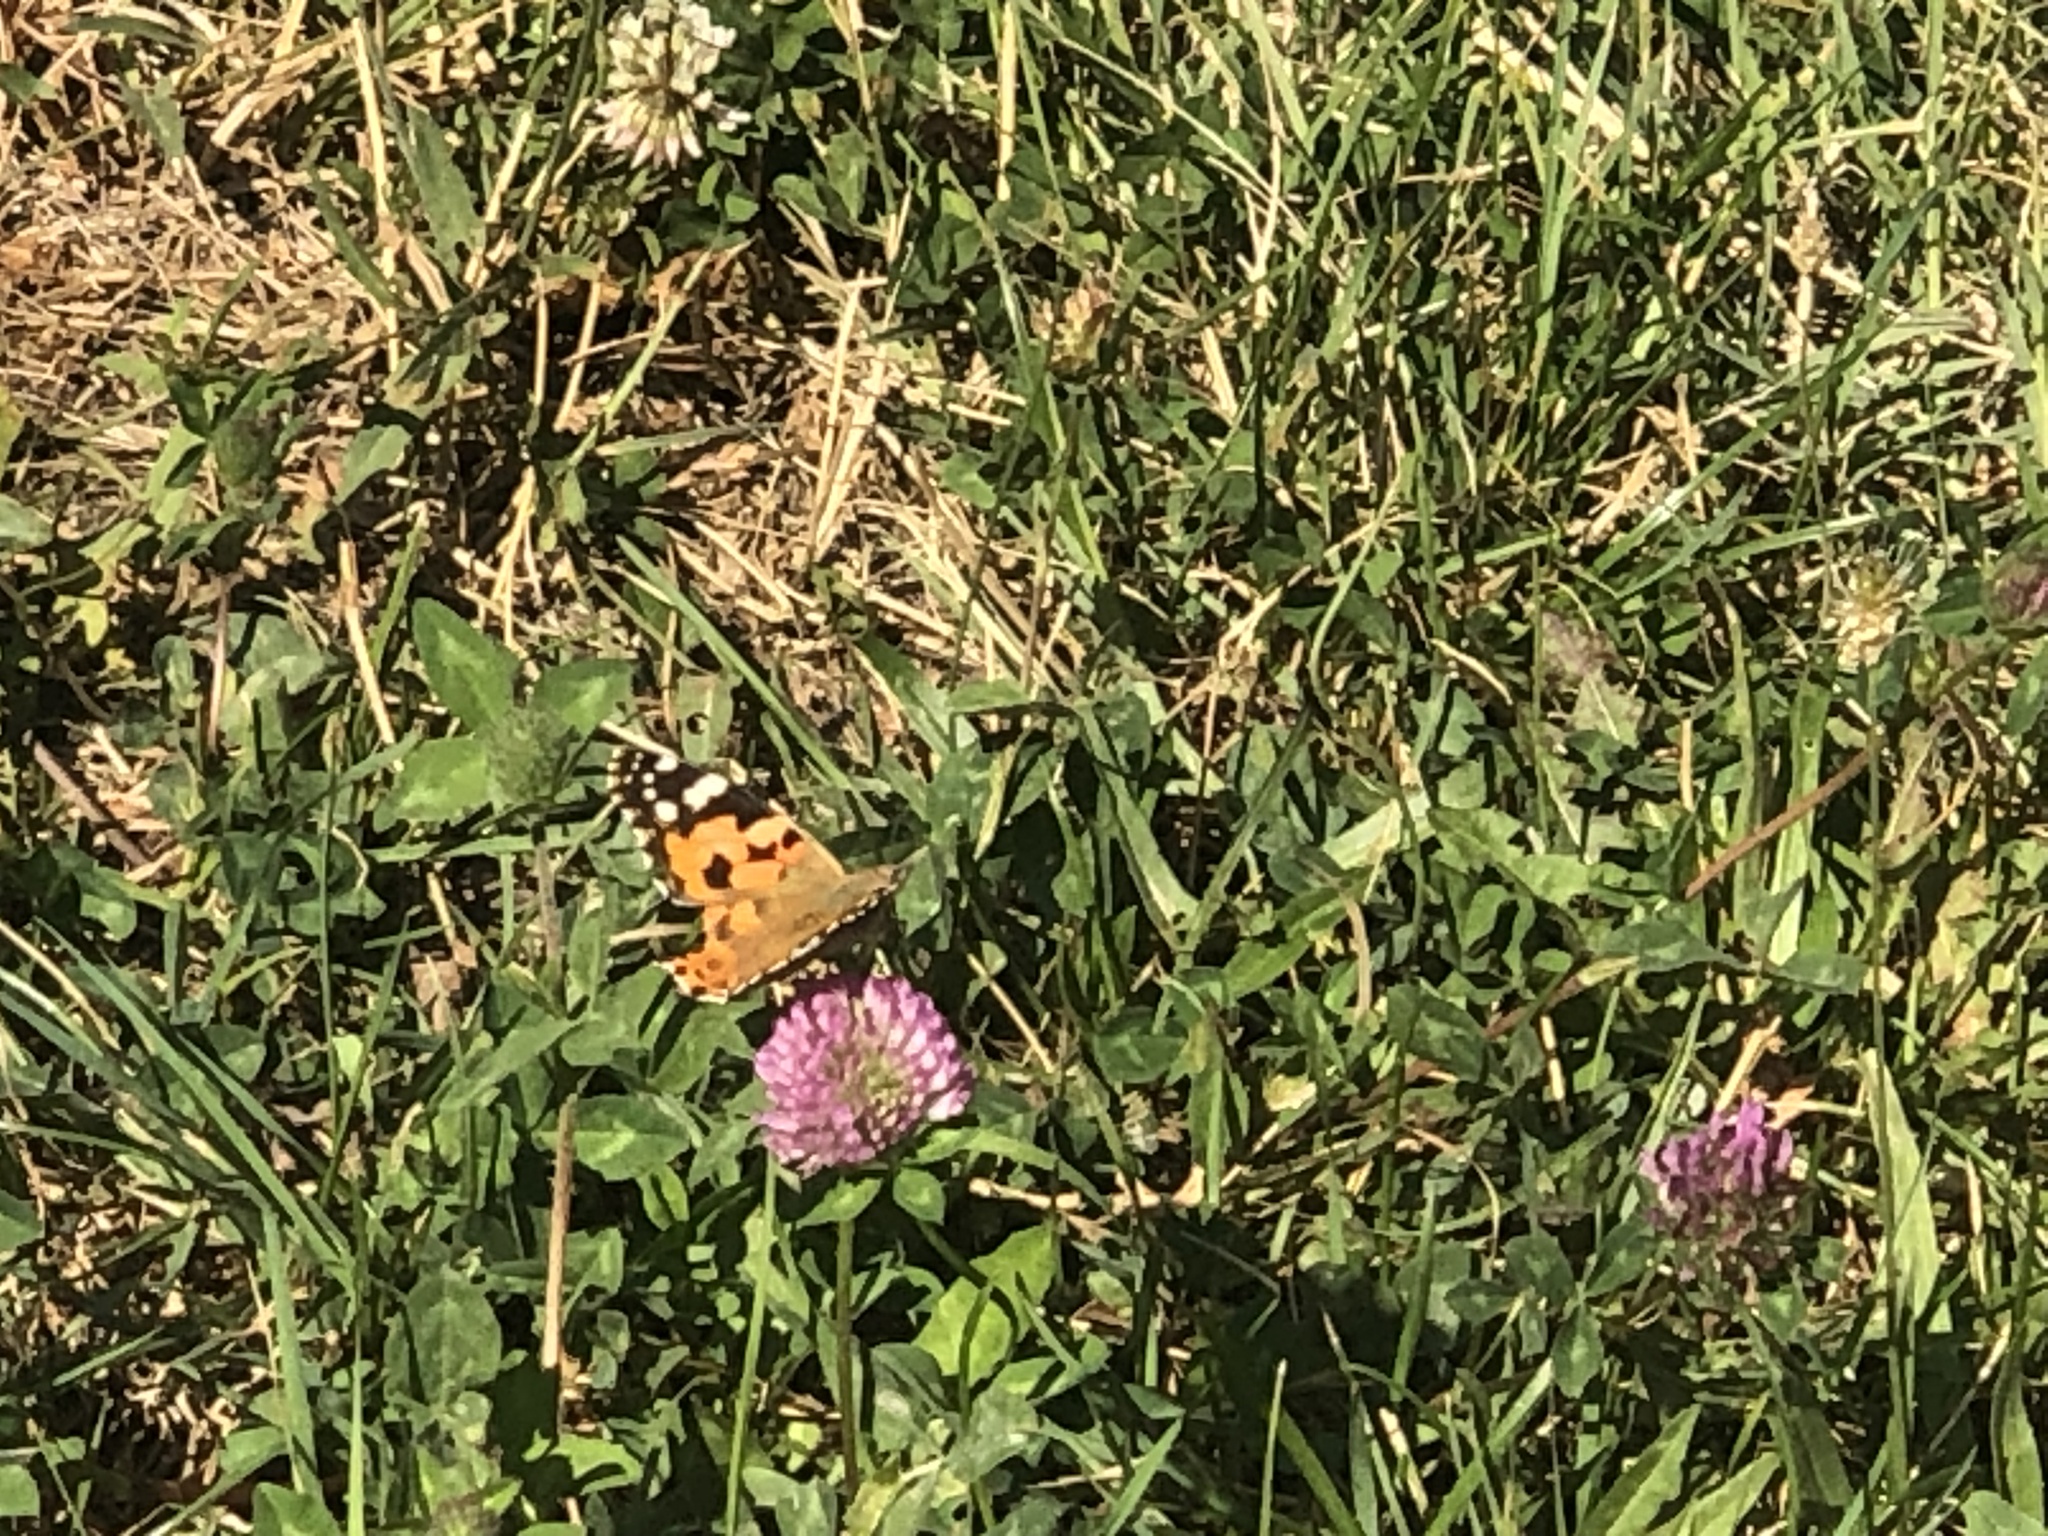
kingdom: Animalia
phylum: Arthropoda
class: Insecta
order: Lepidoptera
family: Nymphalidae
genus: Vanessa
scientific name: Vanessa cardui
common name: Painted lady
